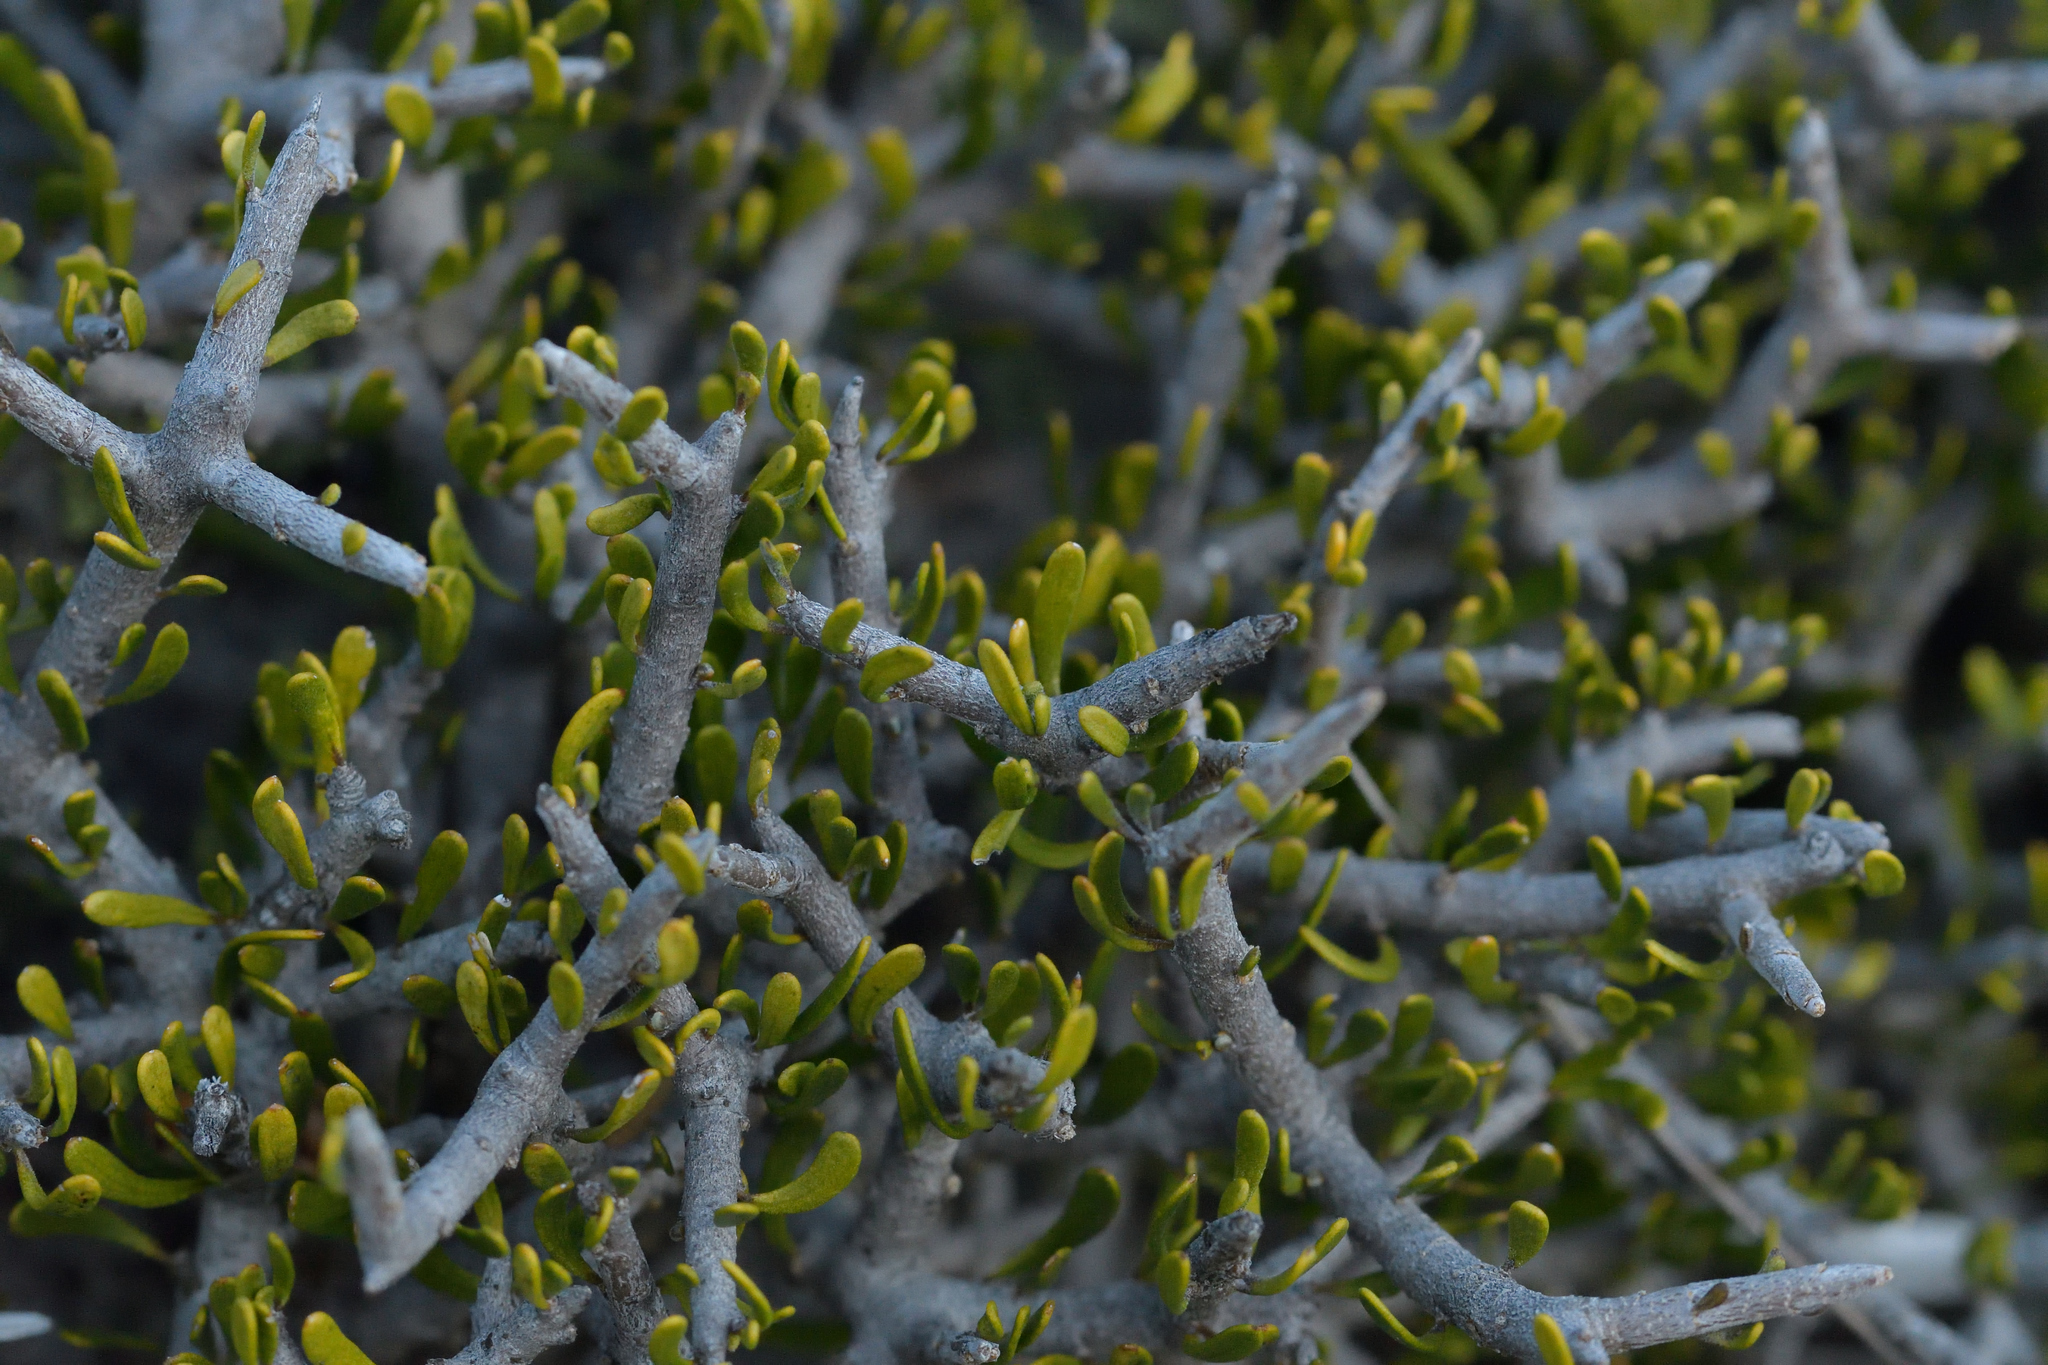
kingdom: Plantae
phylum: Tracheophyta
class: Magnoliopsida
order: Malpighiales
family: Violaceae
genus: Melicytus
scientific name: Melicytus alpinus
